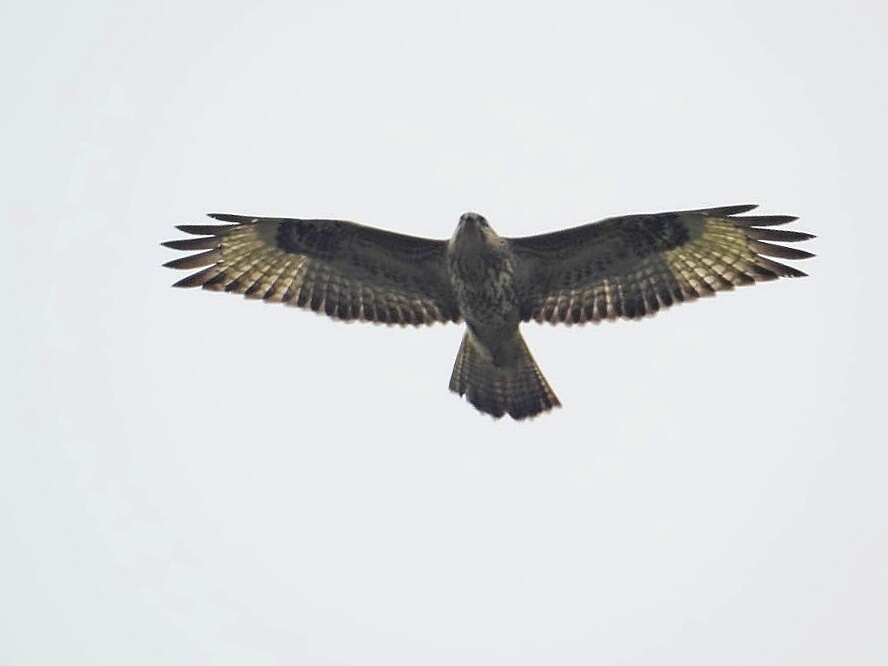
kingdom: Animalia
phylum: Chordata
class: Aves
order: Accipitriformes
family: Accipitridae
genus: Buteo
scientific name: Buteo buteo
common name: Common buzzard
